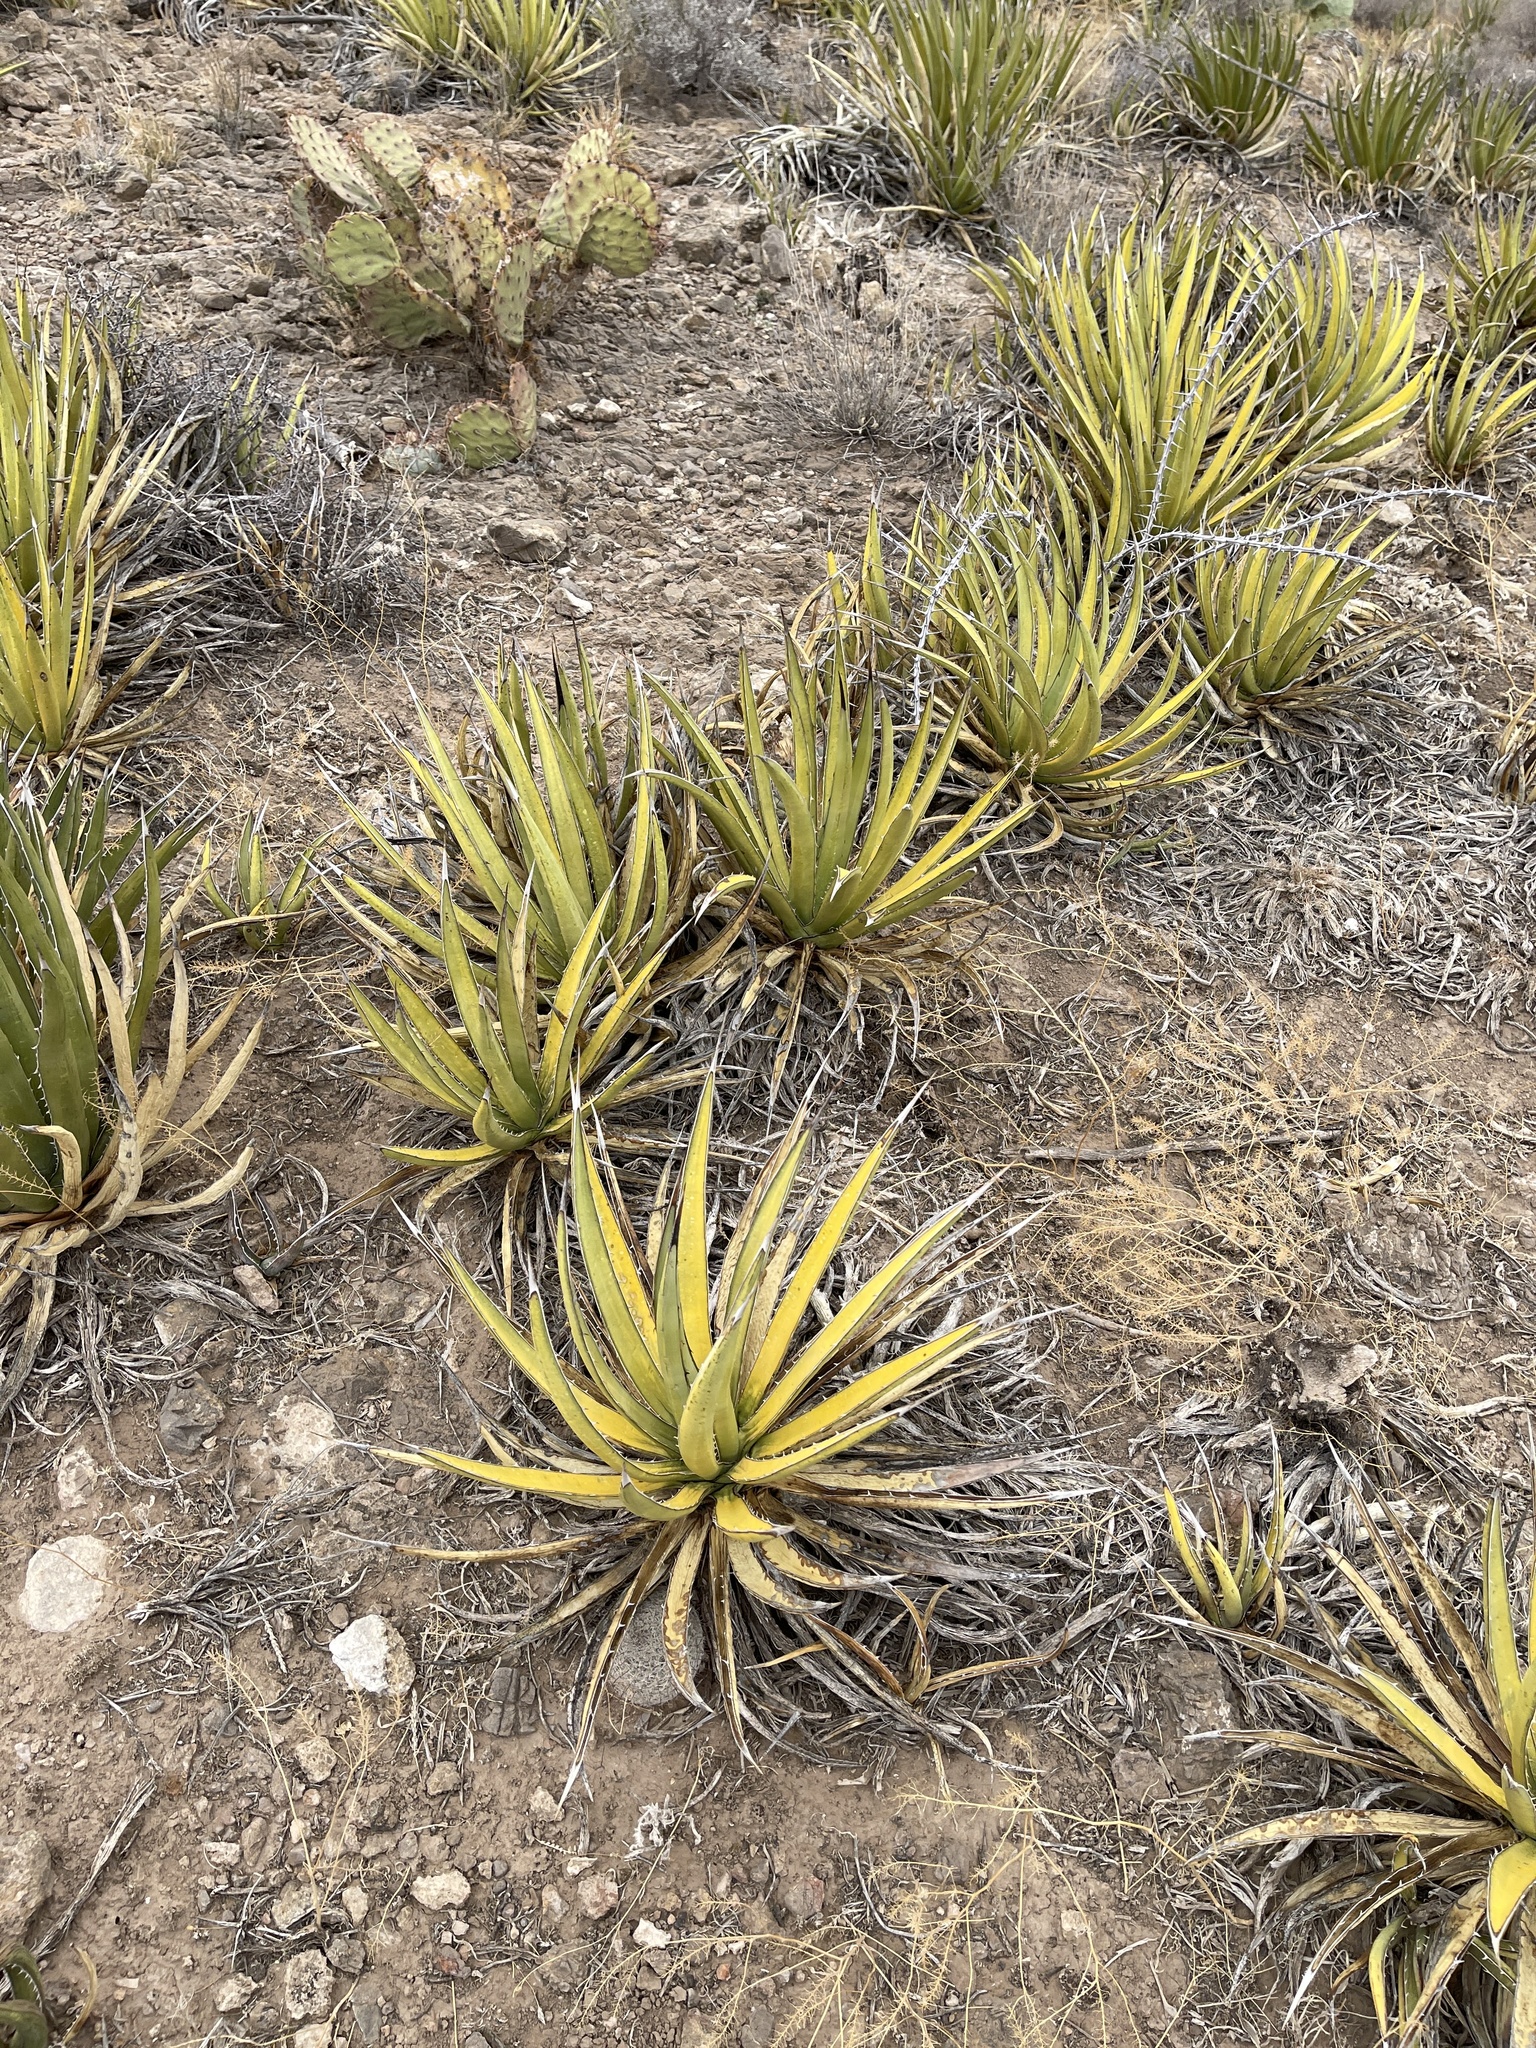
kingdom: Plantae
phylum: Tracheophyta
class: Liliopsida
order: Asparagales
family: Asparagaceae
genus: Agave
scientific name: Agave lechuguilla
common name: Lecheguilla agave
